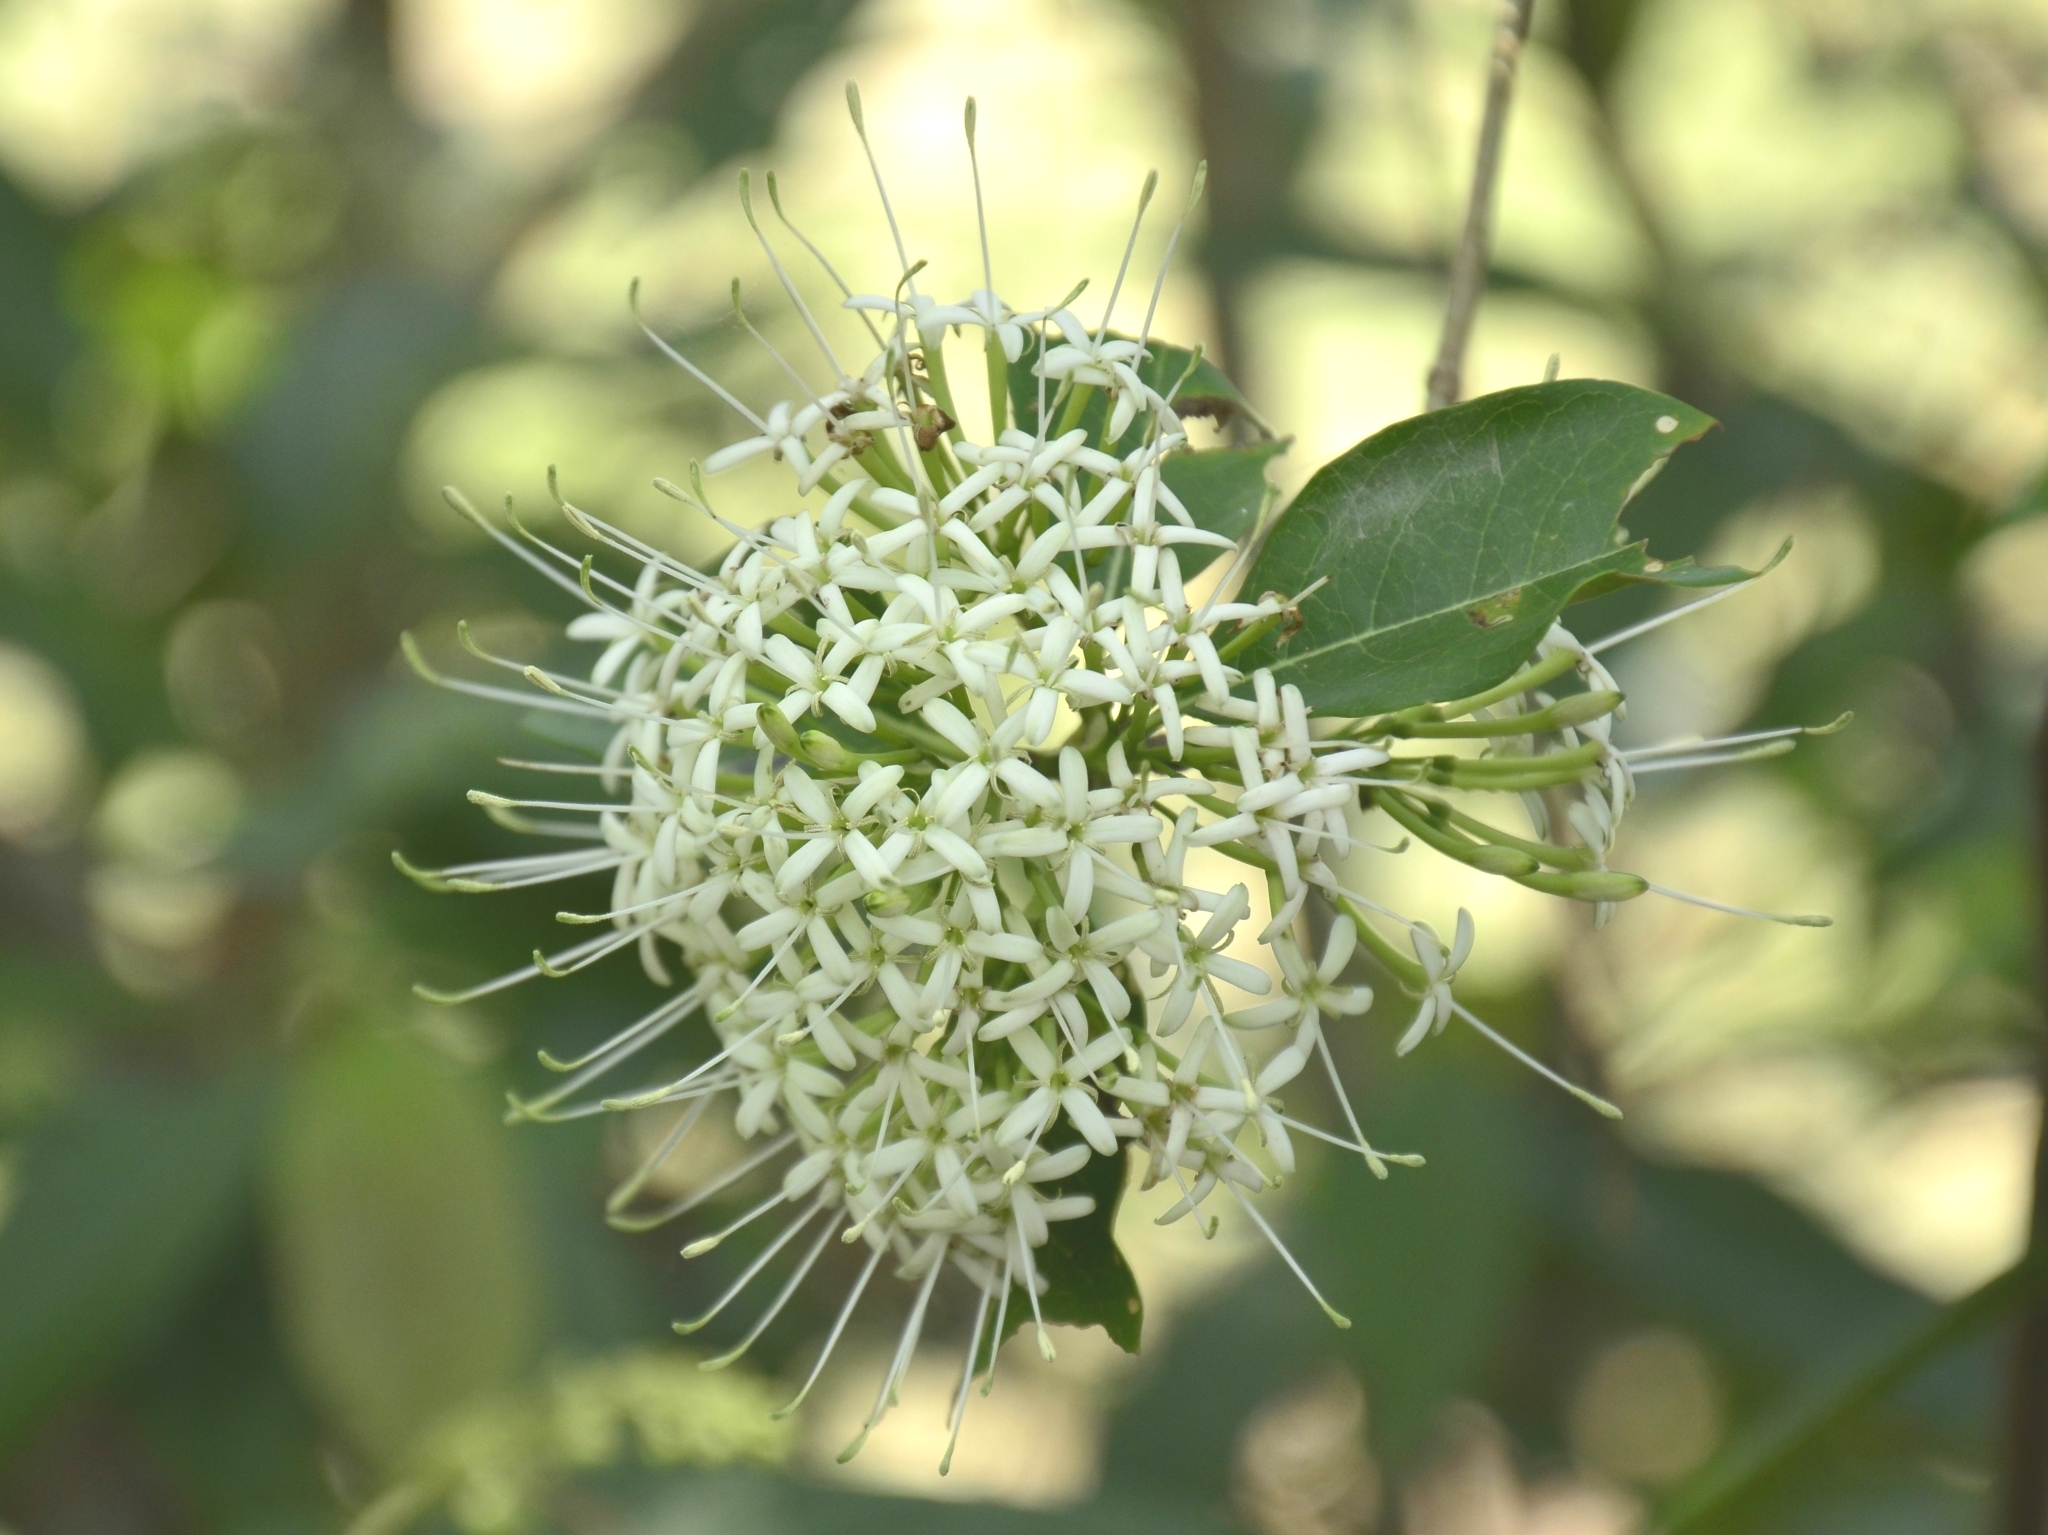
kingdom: Plantae
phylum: Tracheophyta
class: Magnoliopsida
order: Gentianales
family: Rubiaceae
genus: Pavetta
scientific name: Pavetta indica
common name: Indian pavetta
